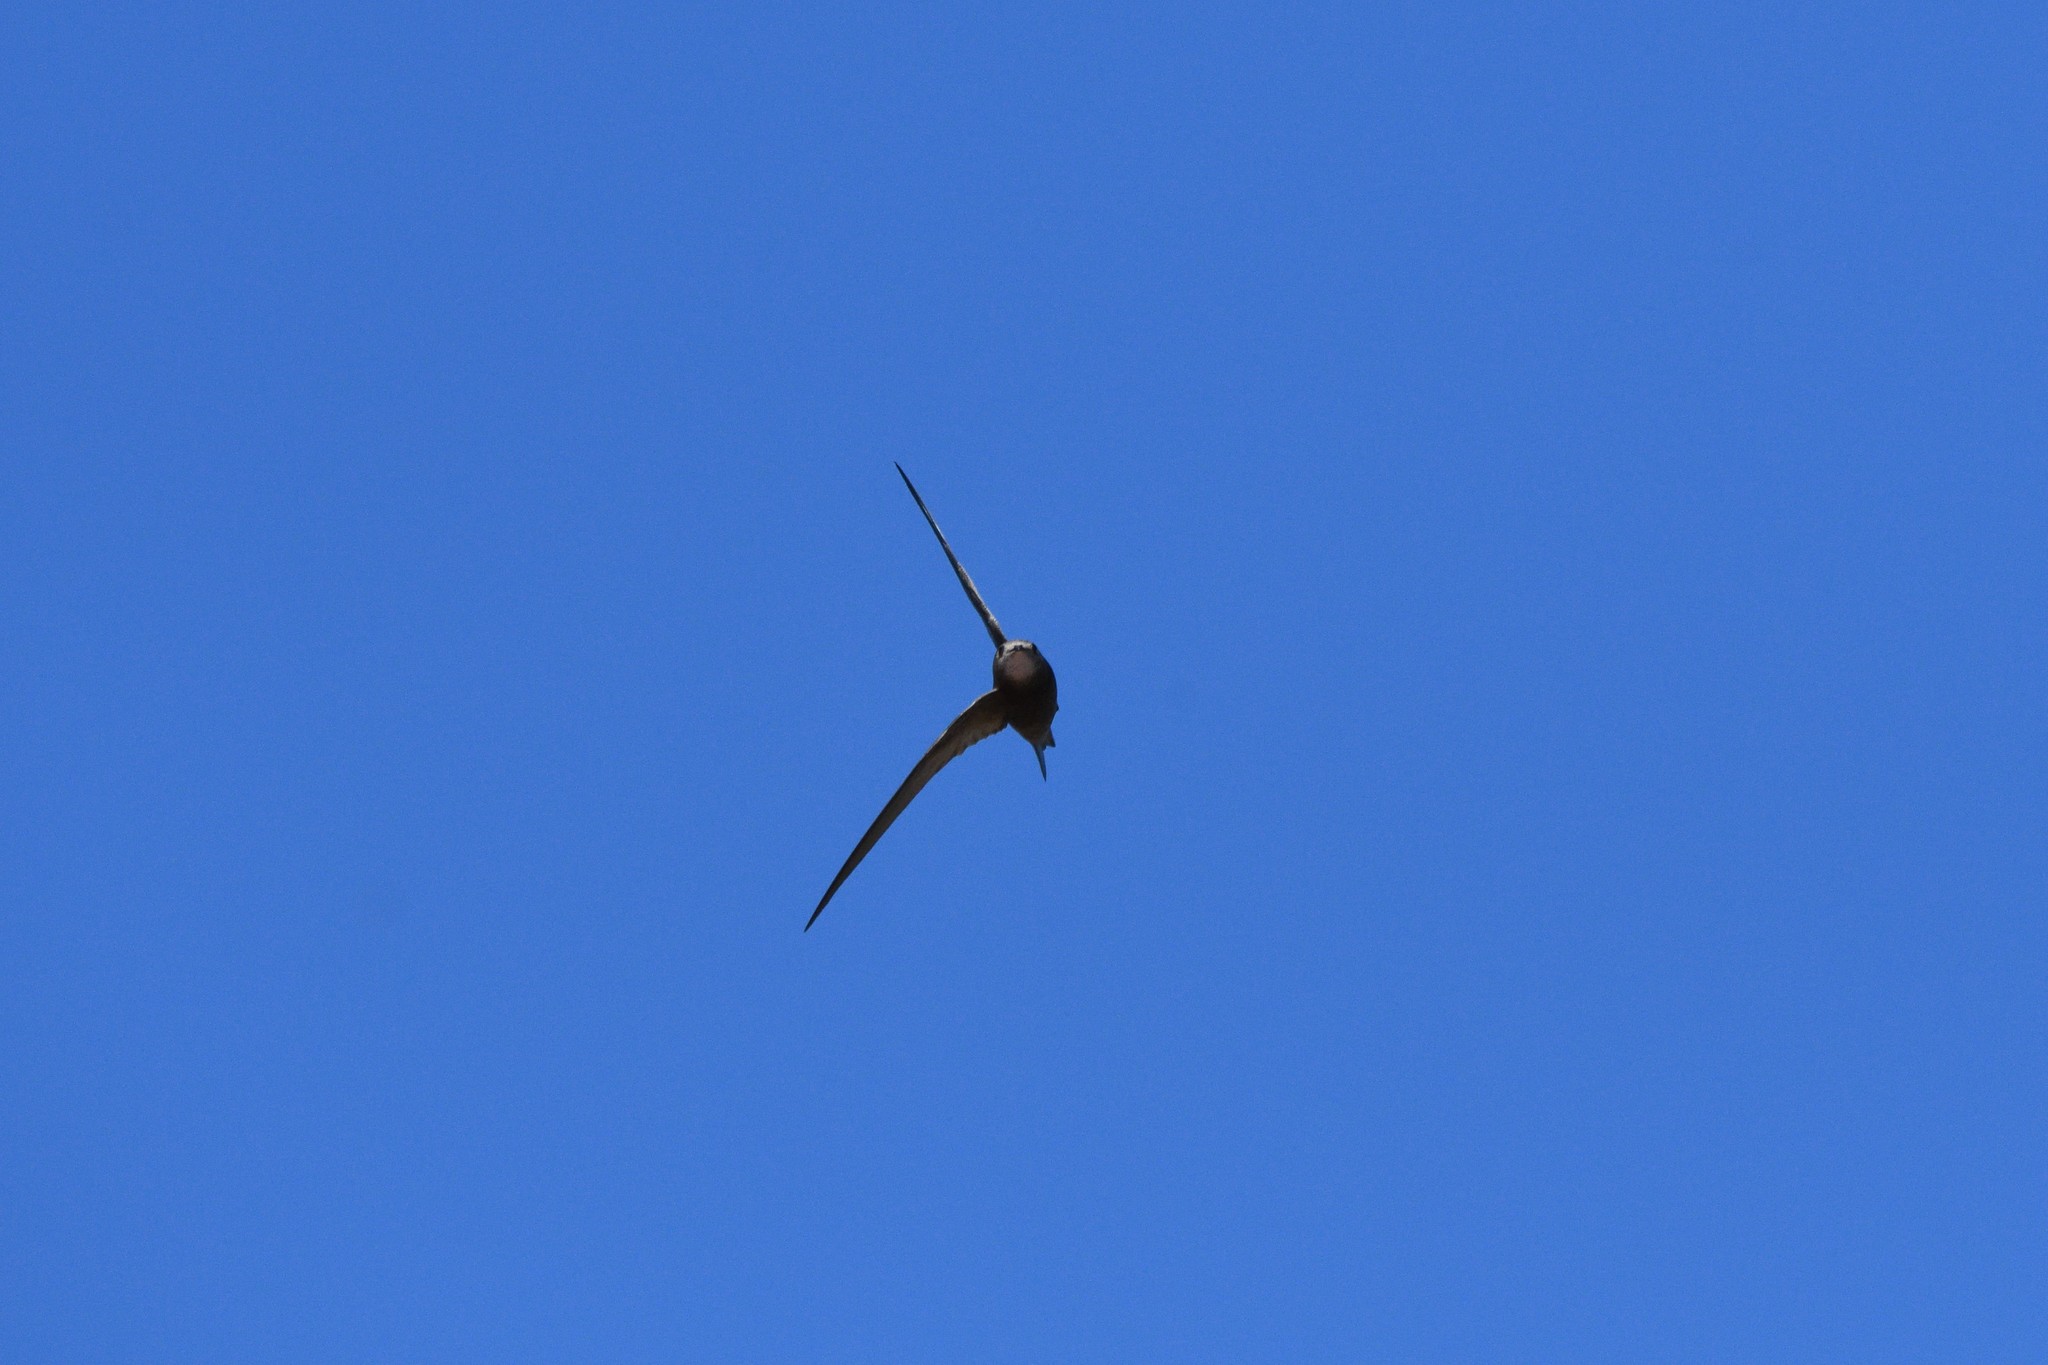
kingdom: Animalia
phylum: Chordata
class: Aves
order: Apodiformes
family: Apodidae
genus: Apus
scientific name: Apus apus
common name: Common swift
